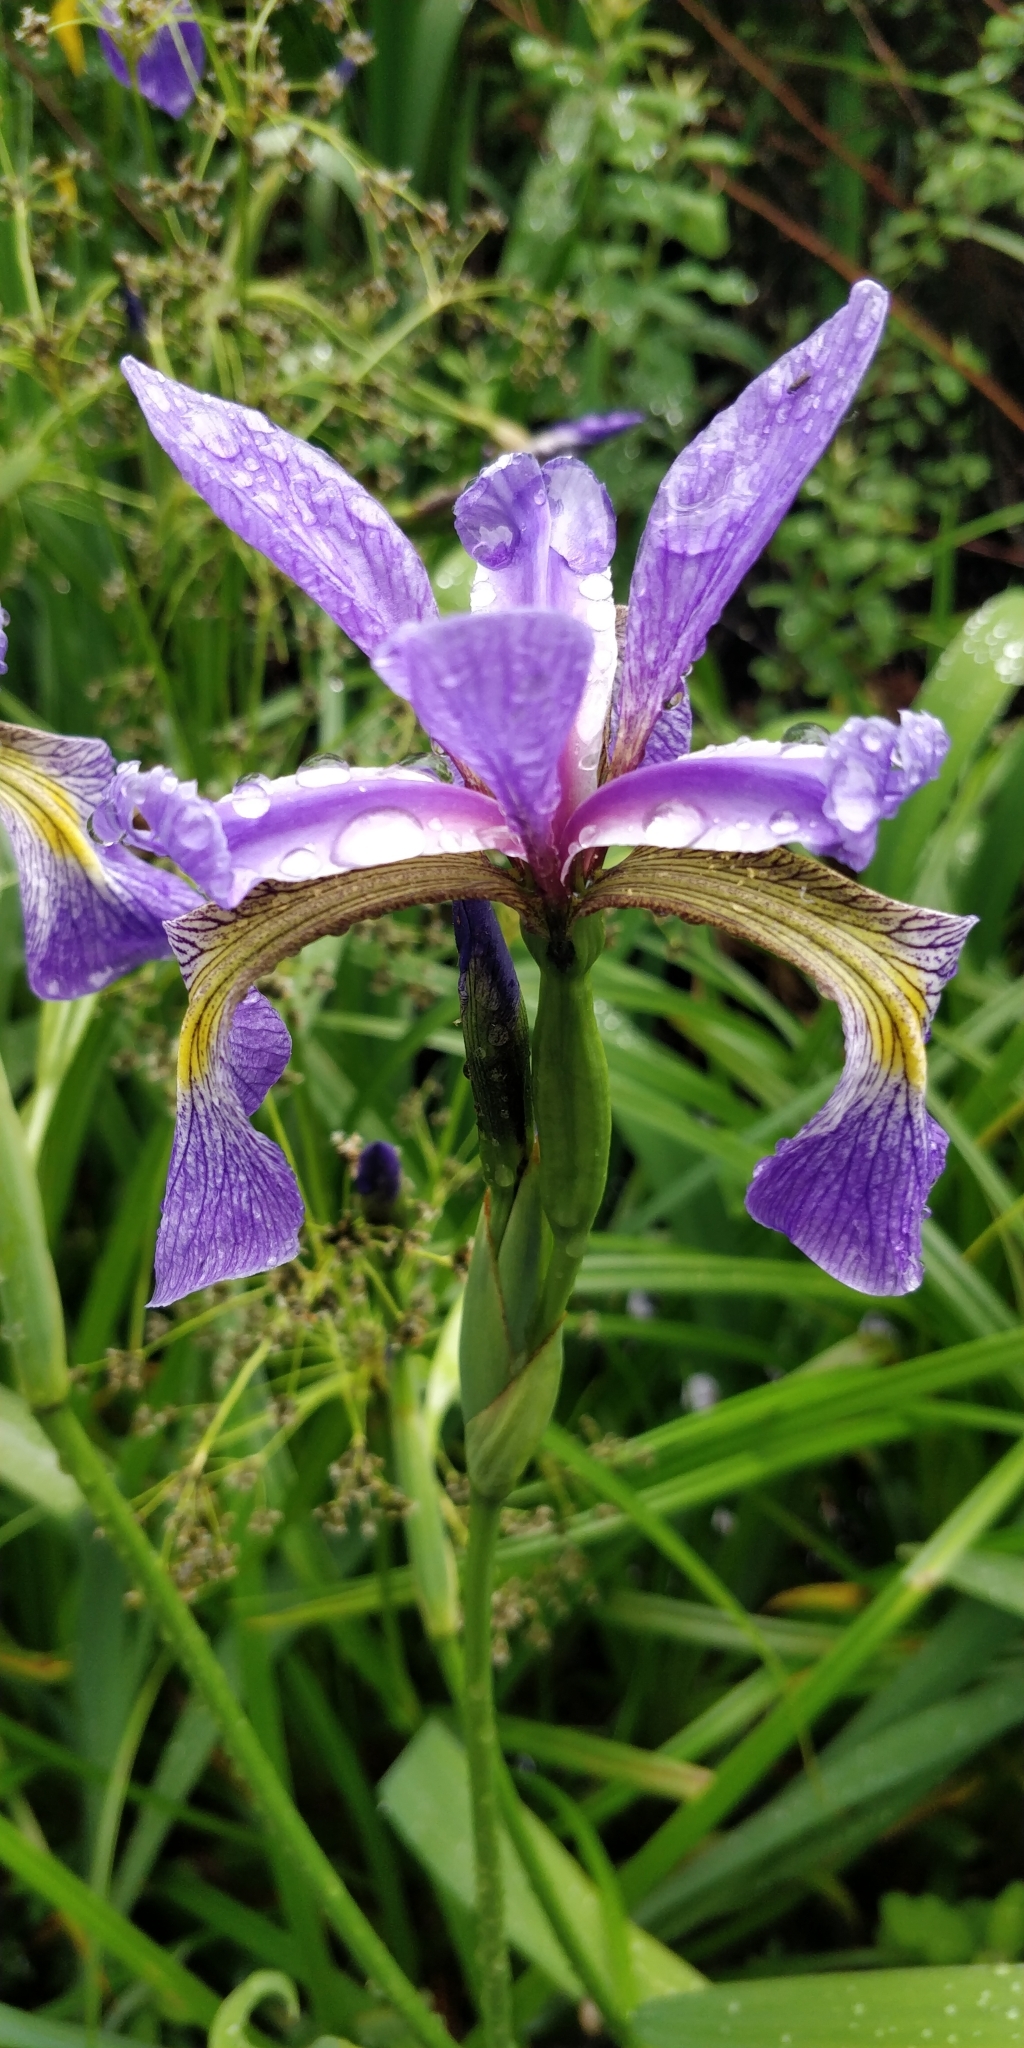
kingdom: Plantae
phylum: Tracheophyta
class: Liliopsida
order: Asparagales
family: Iridaceae
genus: Iris
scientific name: Iris versicolor
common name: Purple iris
